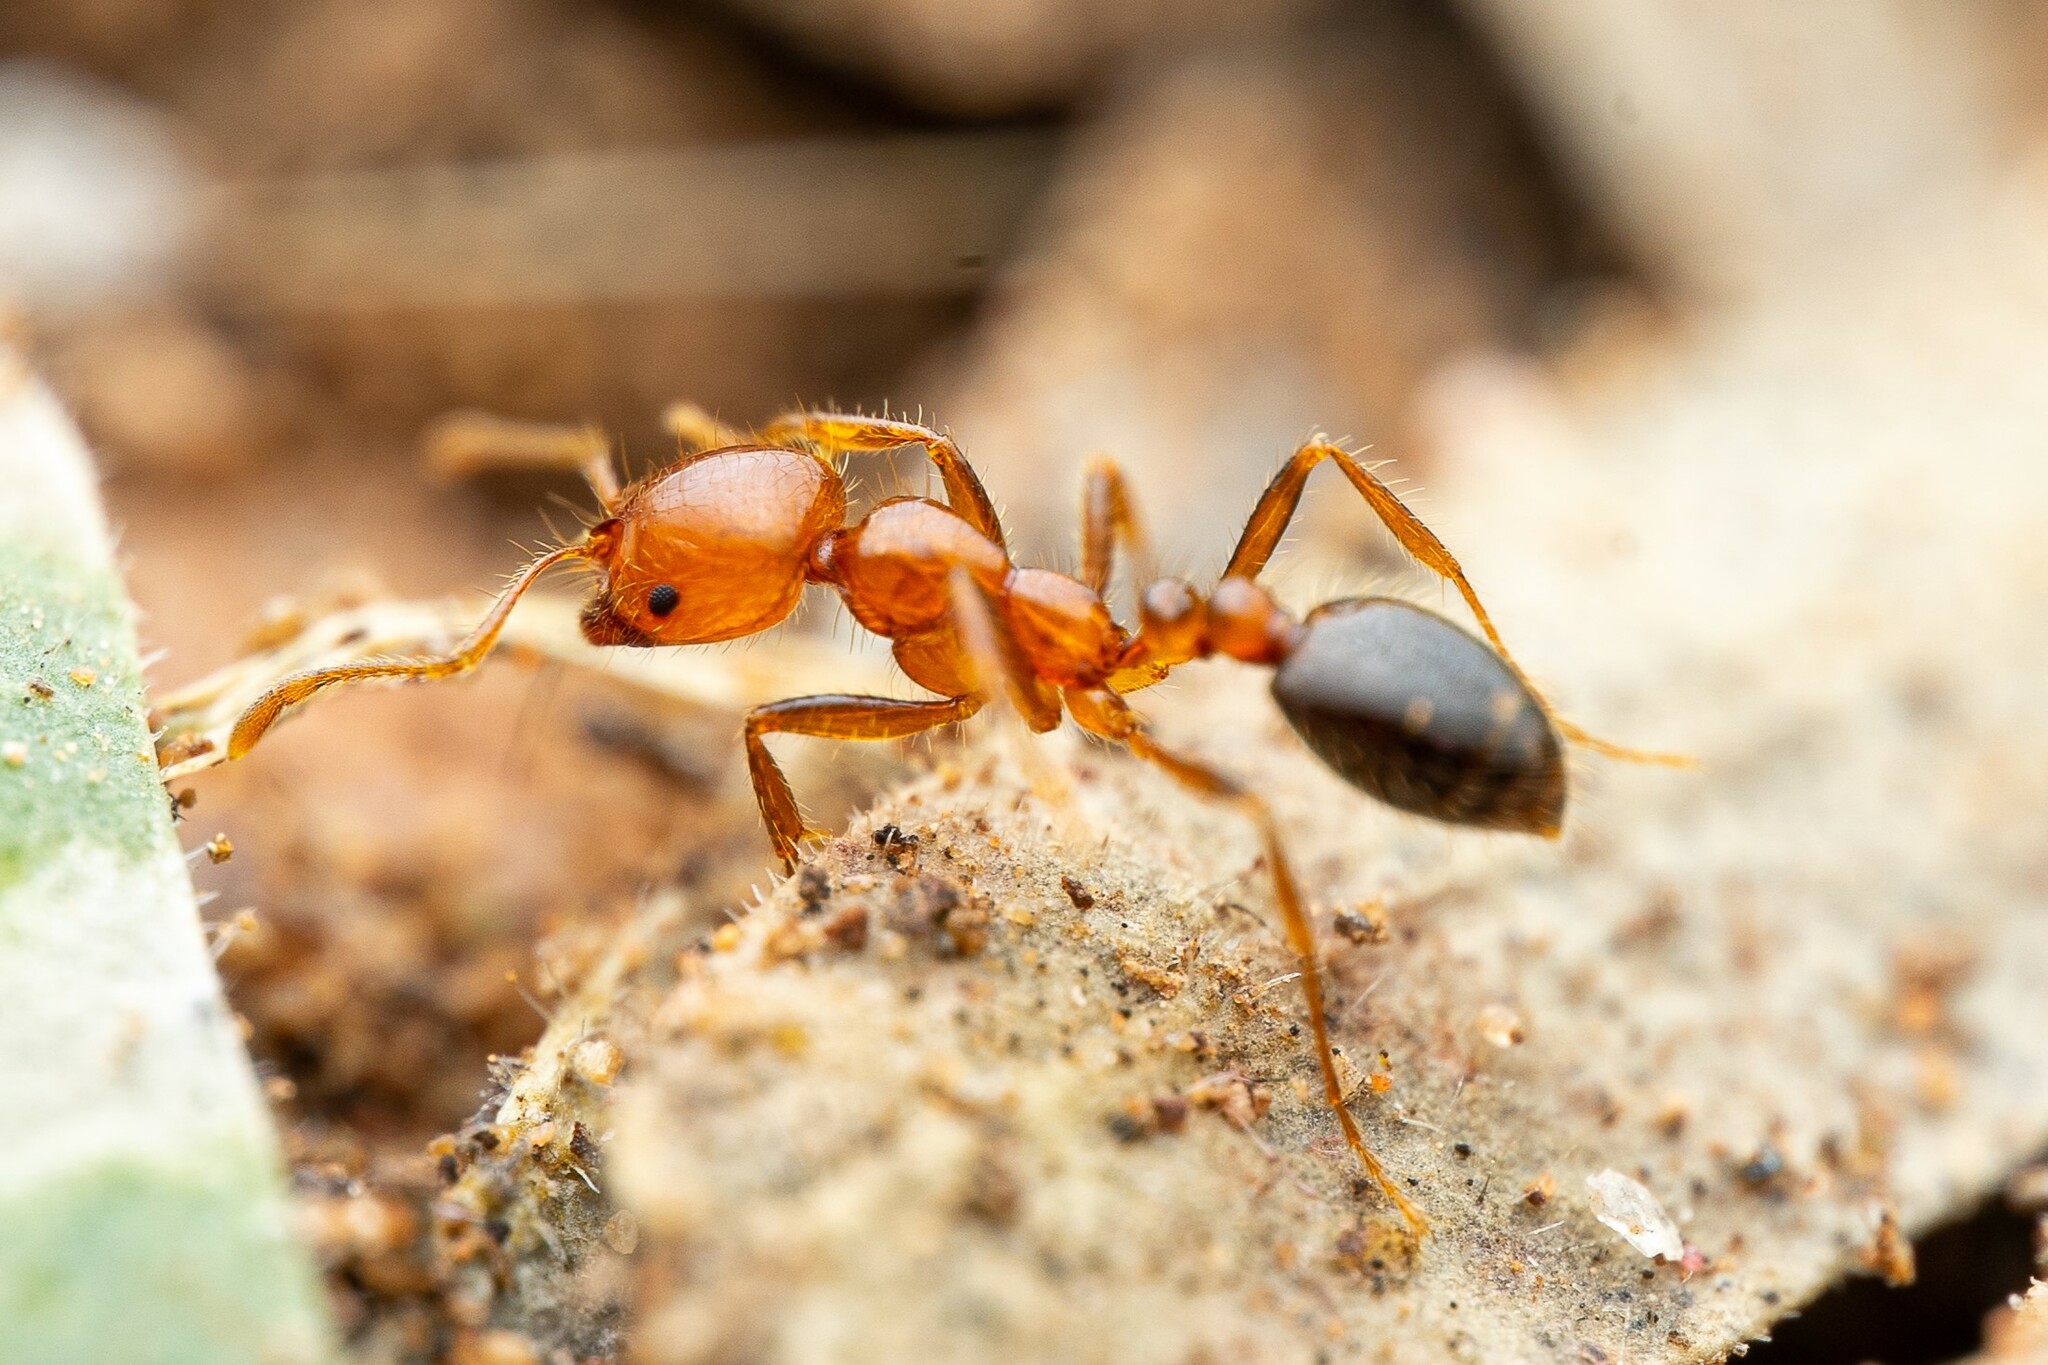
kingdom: Animalia
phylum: Arthropoda
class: Insecta
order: Hymenoptera
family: Formicidae
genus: Solenopsis
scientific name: Solenopsis xyloni
